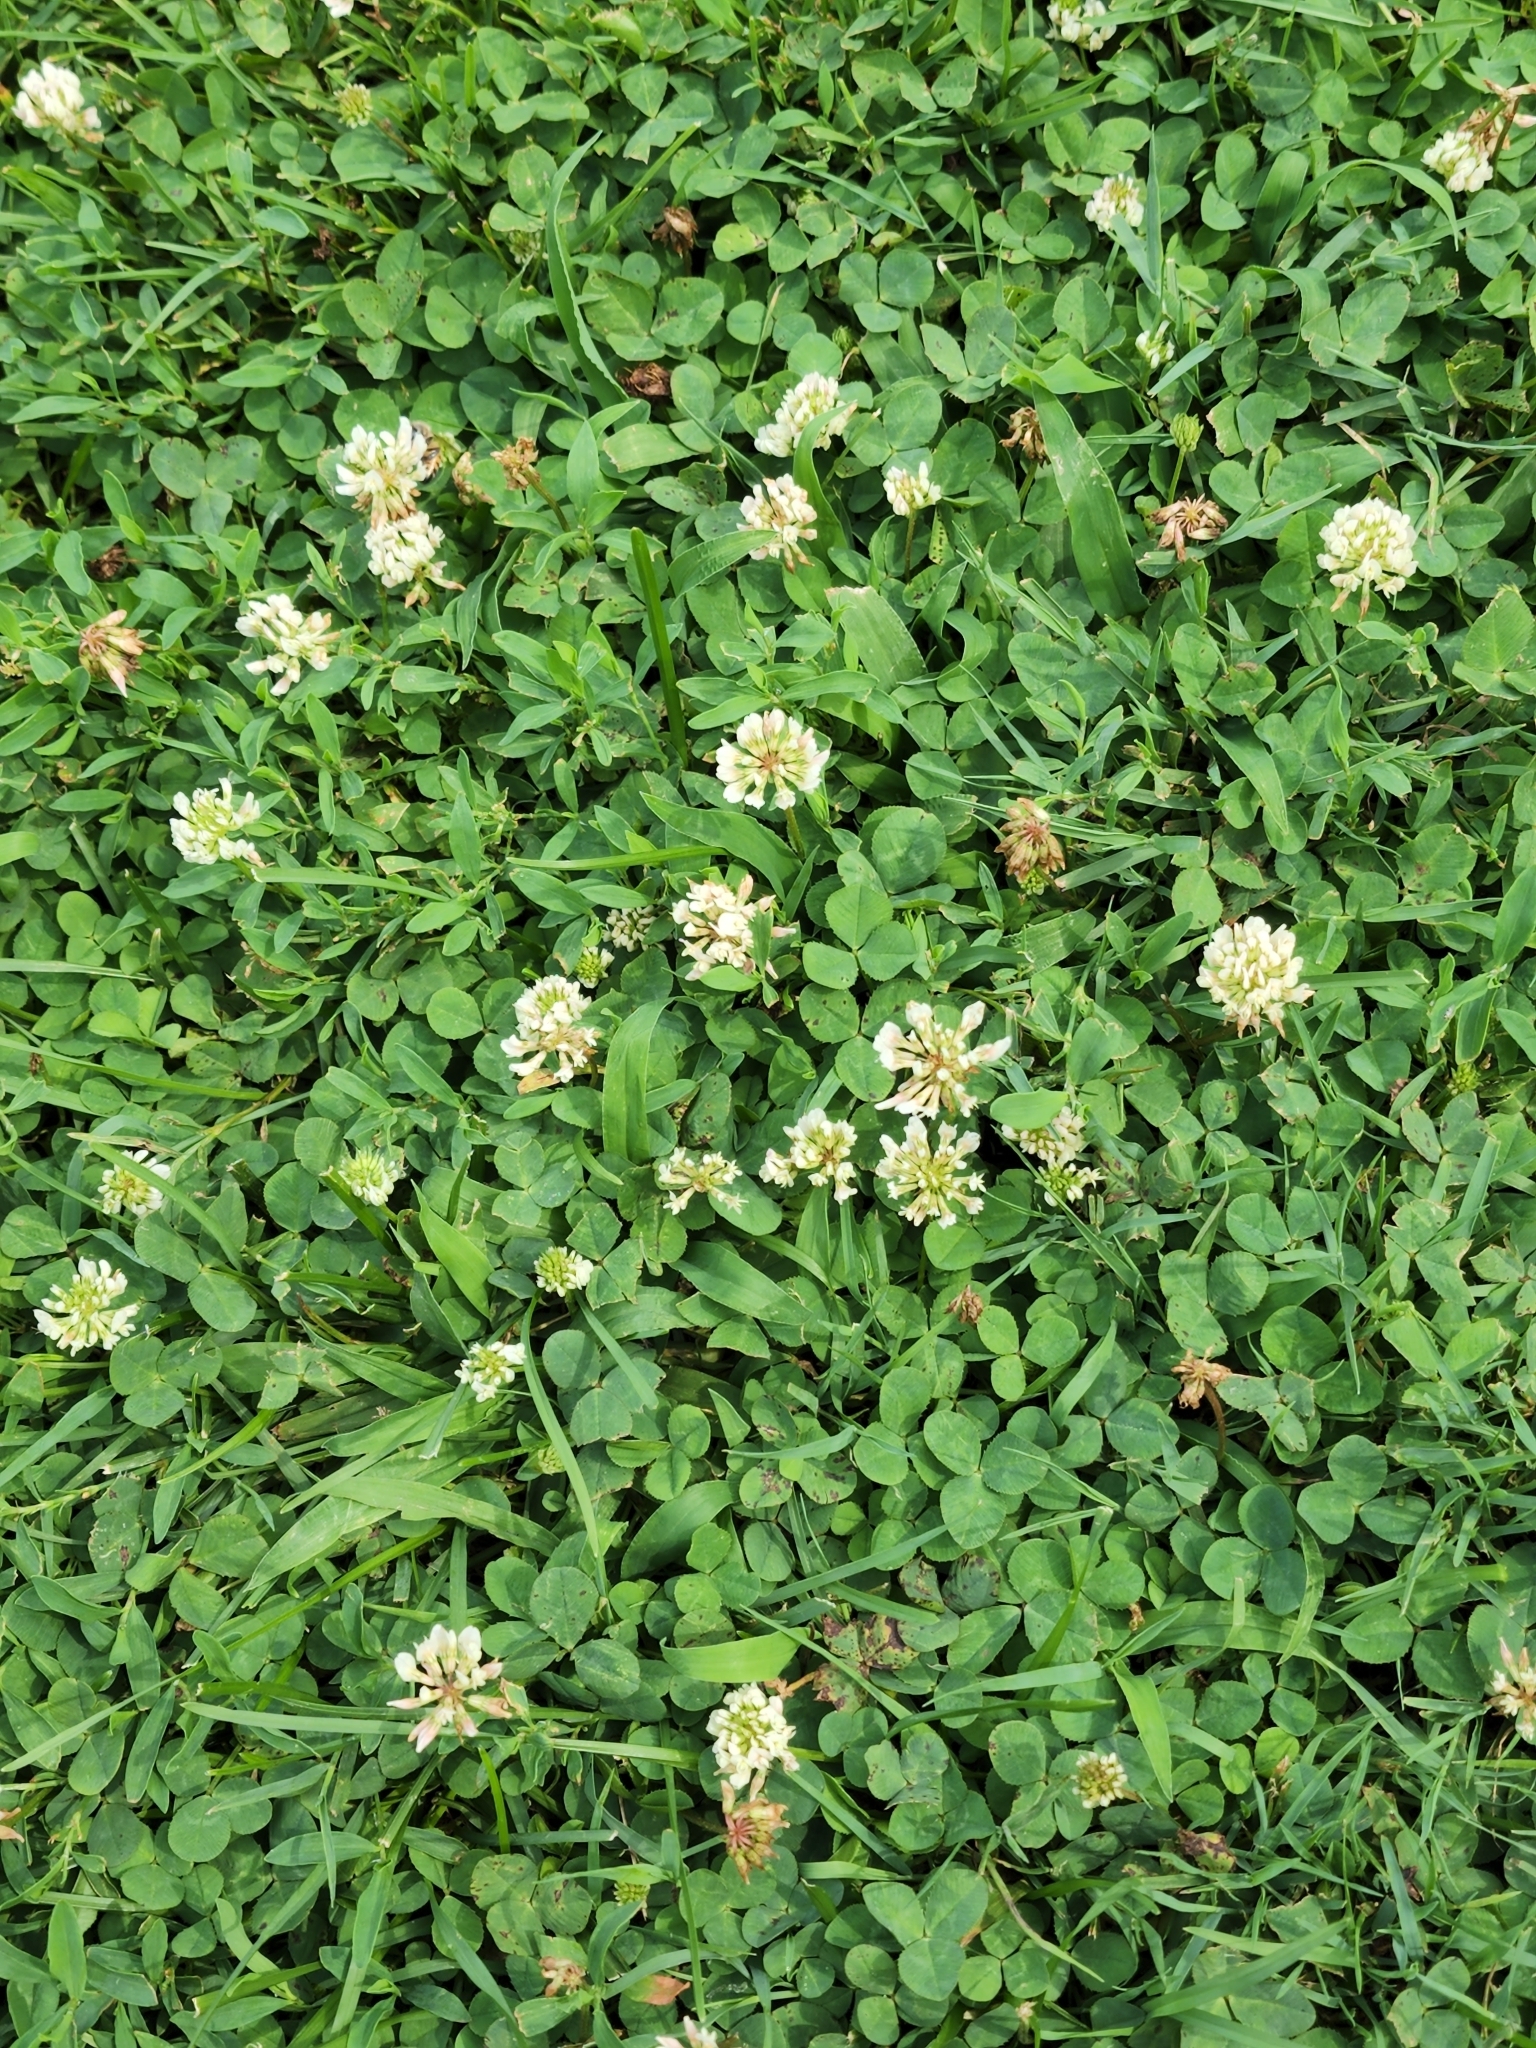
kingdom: Plantae
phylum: Tracheophyta
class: Magnoliopsida
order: Fabales
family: Fabaceae
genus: Trifolium
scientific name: Trifolium repens
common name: White clover
